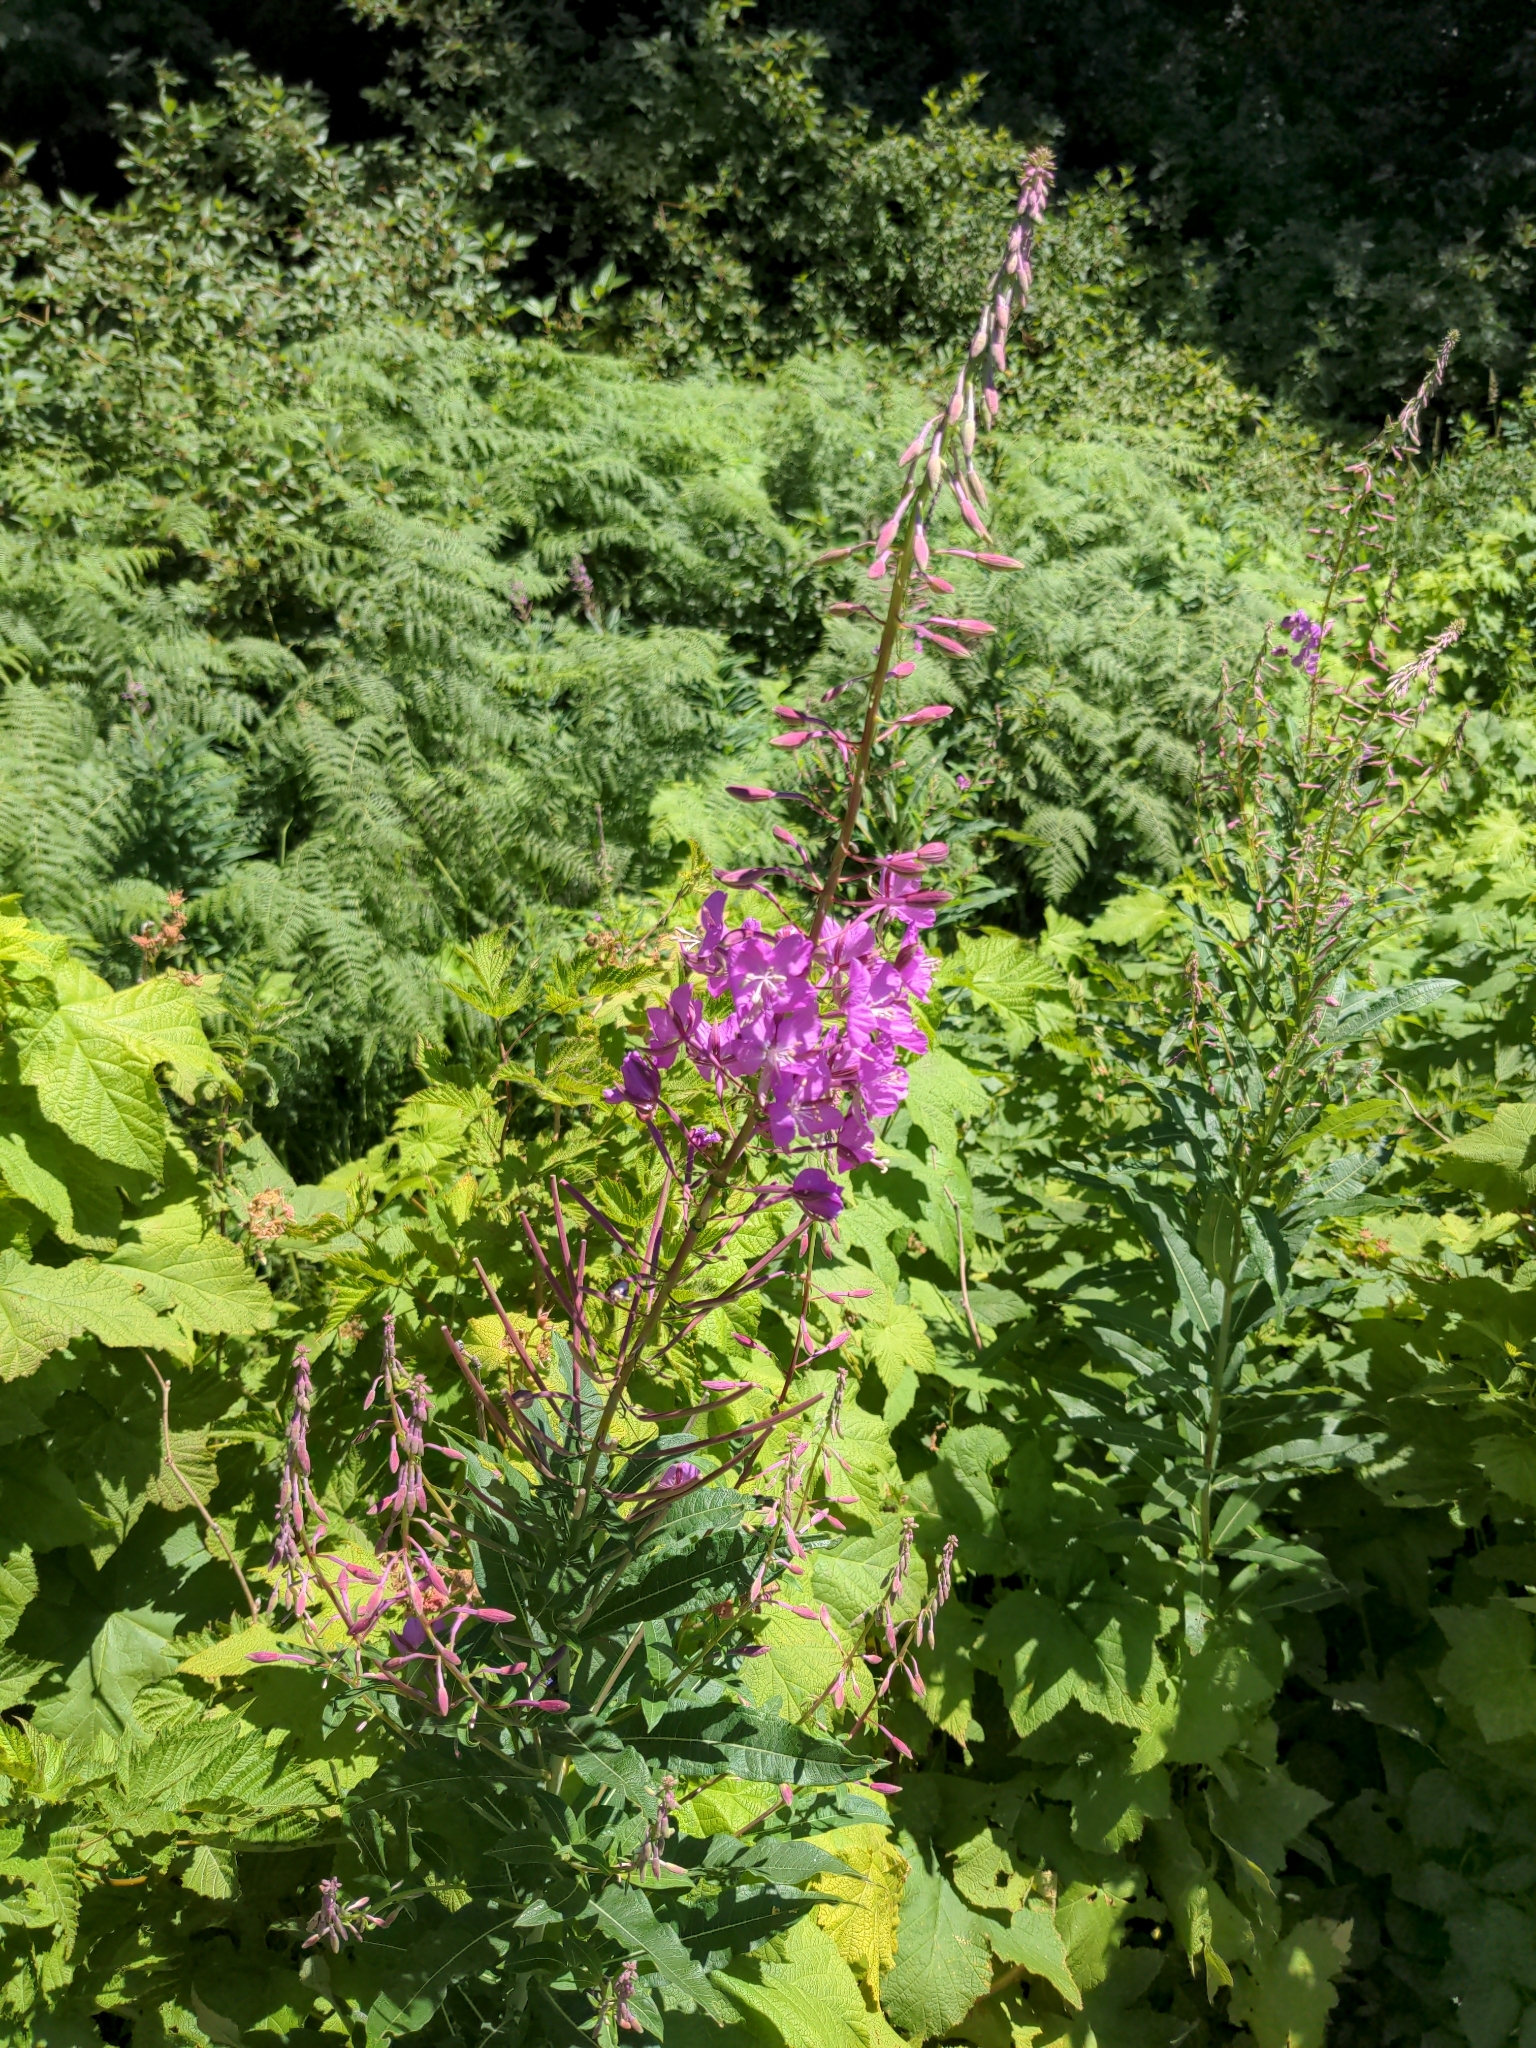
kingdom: Plantae
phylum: Tracheophyta
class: Magnoliopsida
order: Myrtales
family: Onagraceae
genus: Chamaenerion
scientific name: Chamaenerion angustifolium
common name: Fireweed
